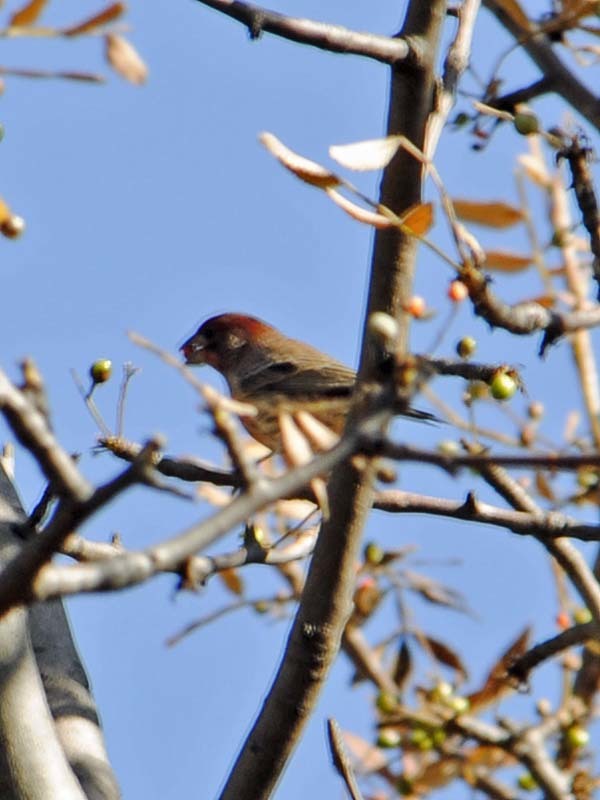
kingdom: Animalia
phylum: Chordata
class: Aves
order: Passeriformes
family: Fringillidae
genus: Haemorhous
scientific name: Haemorhous mexicanus
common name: House finch
